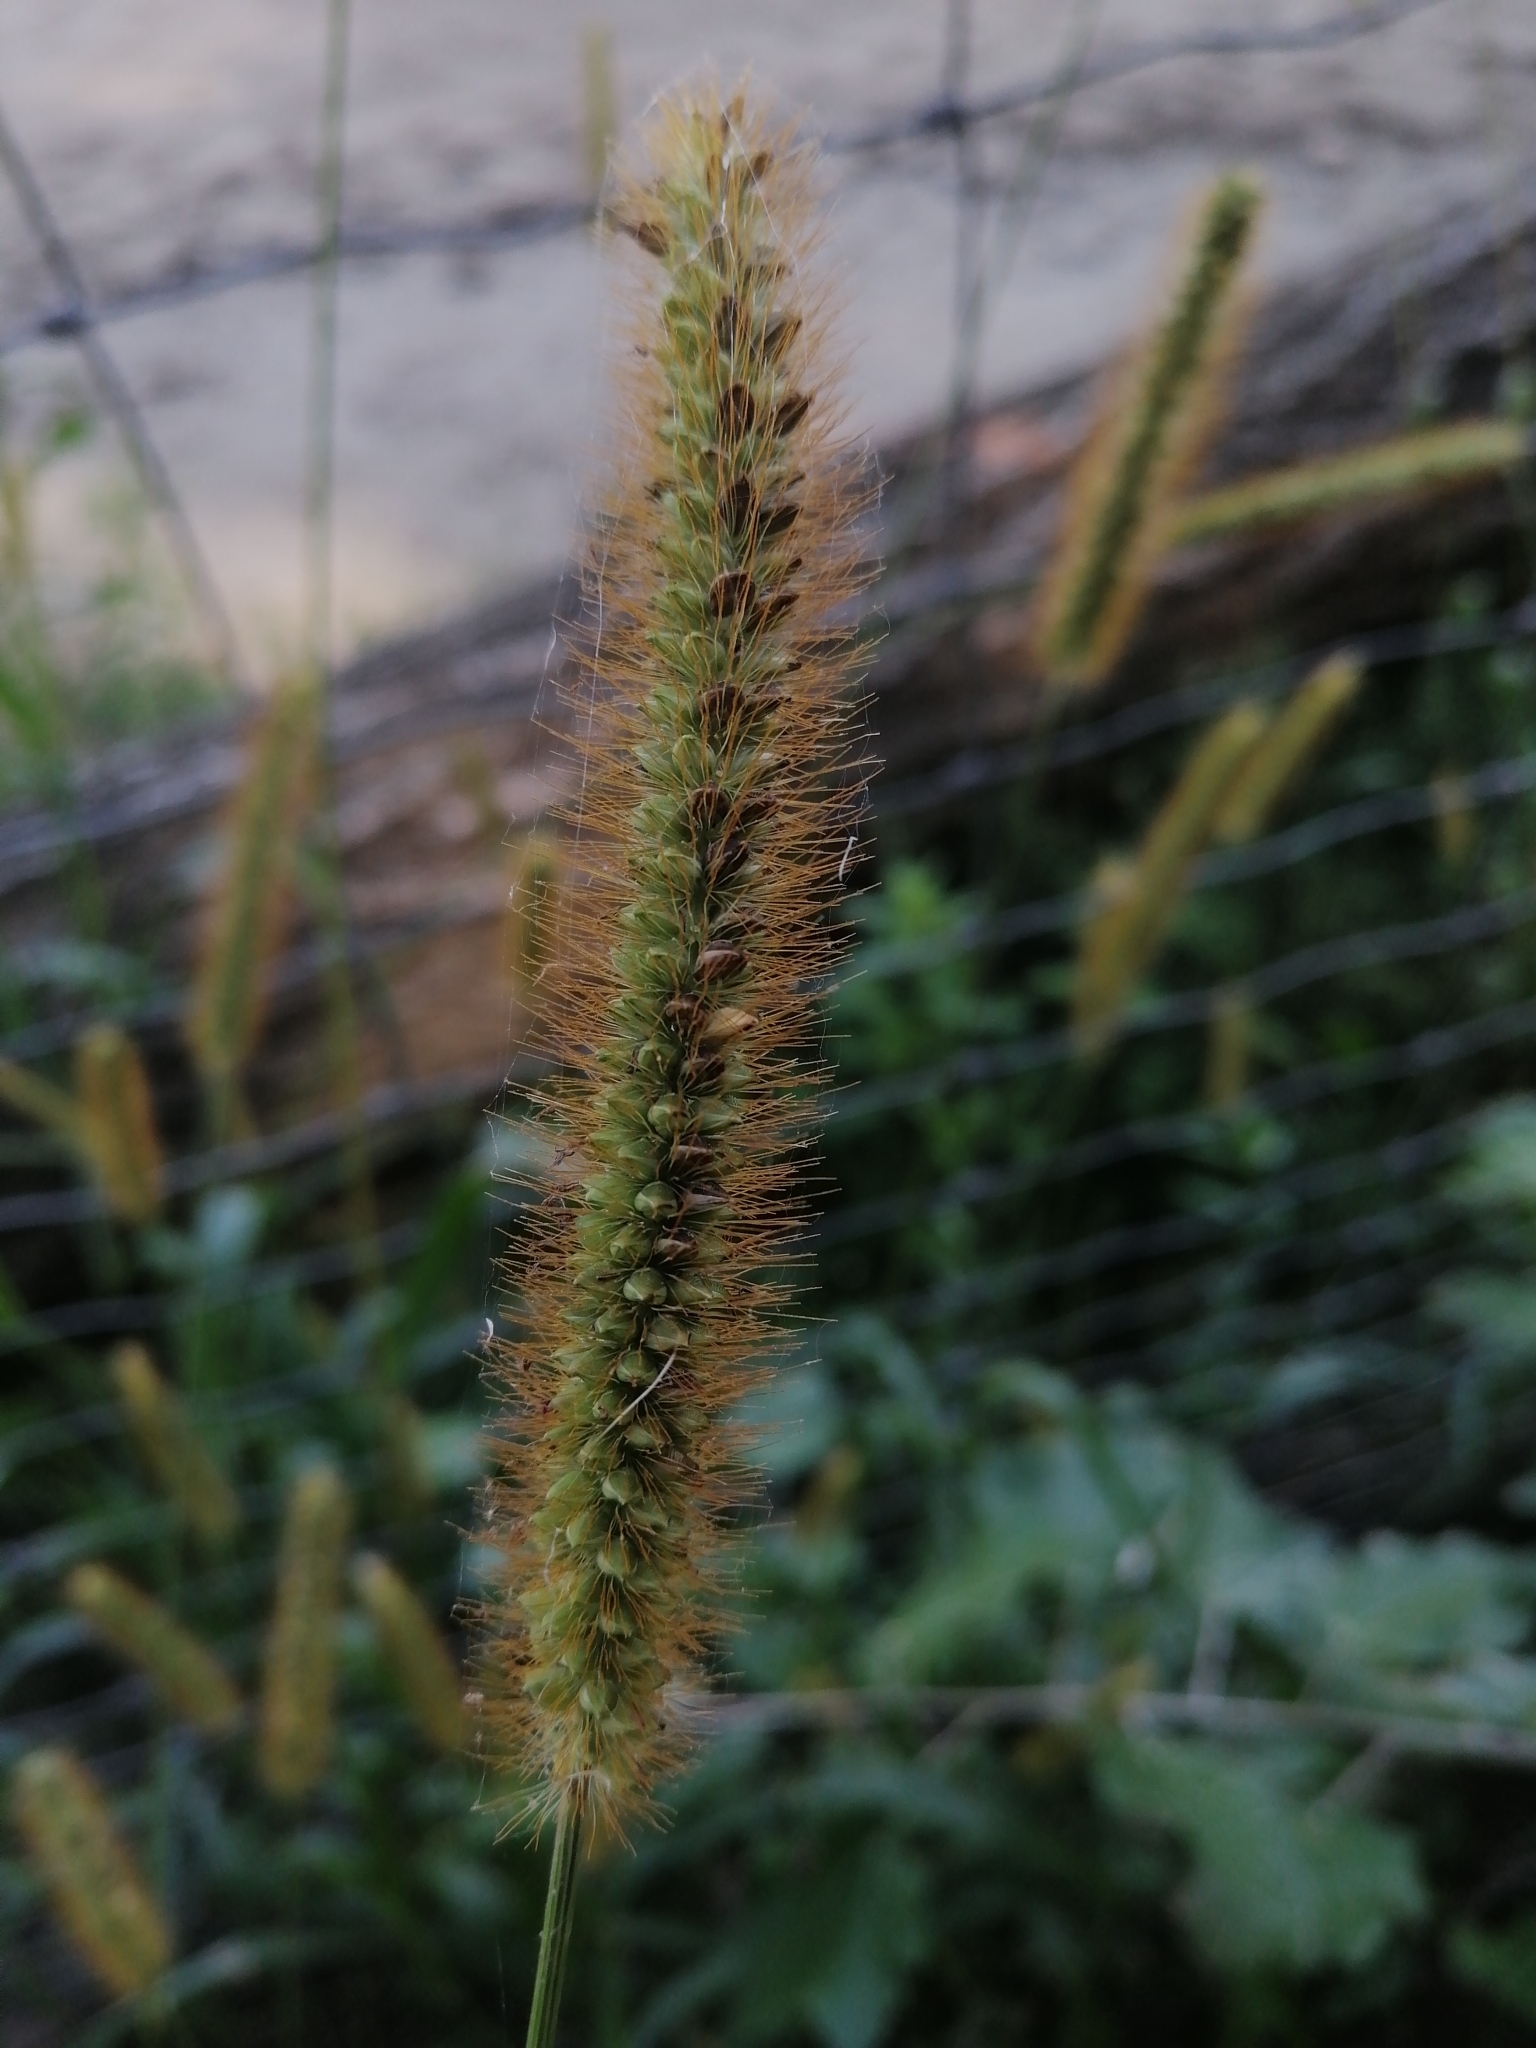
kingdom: Plantae
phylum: Tracheophyta
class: Liliopsida
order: Poales
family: Poaceae
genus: Setaria
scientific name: Setaria pumila
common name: Yellow bristle-grass
